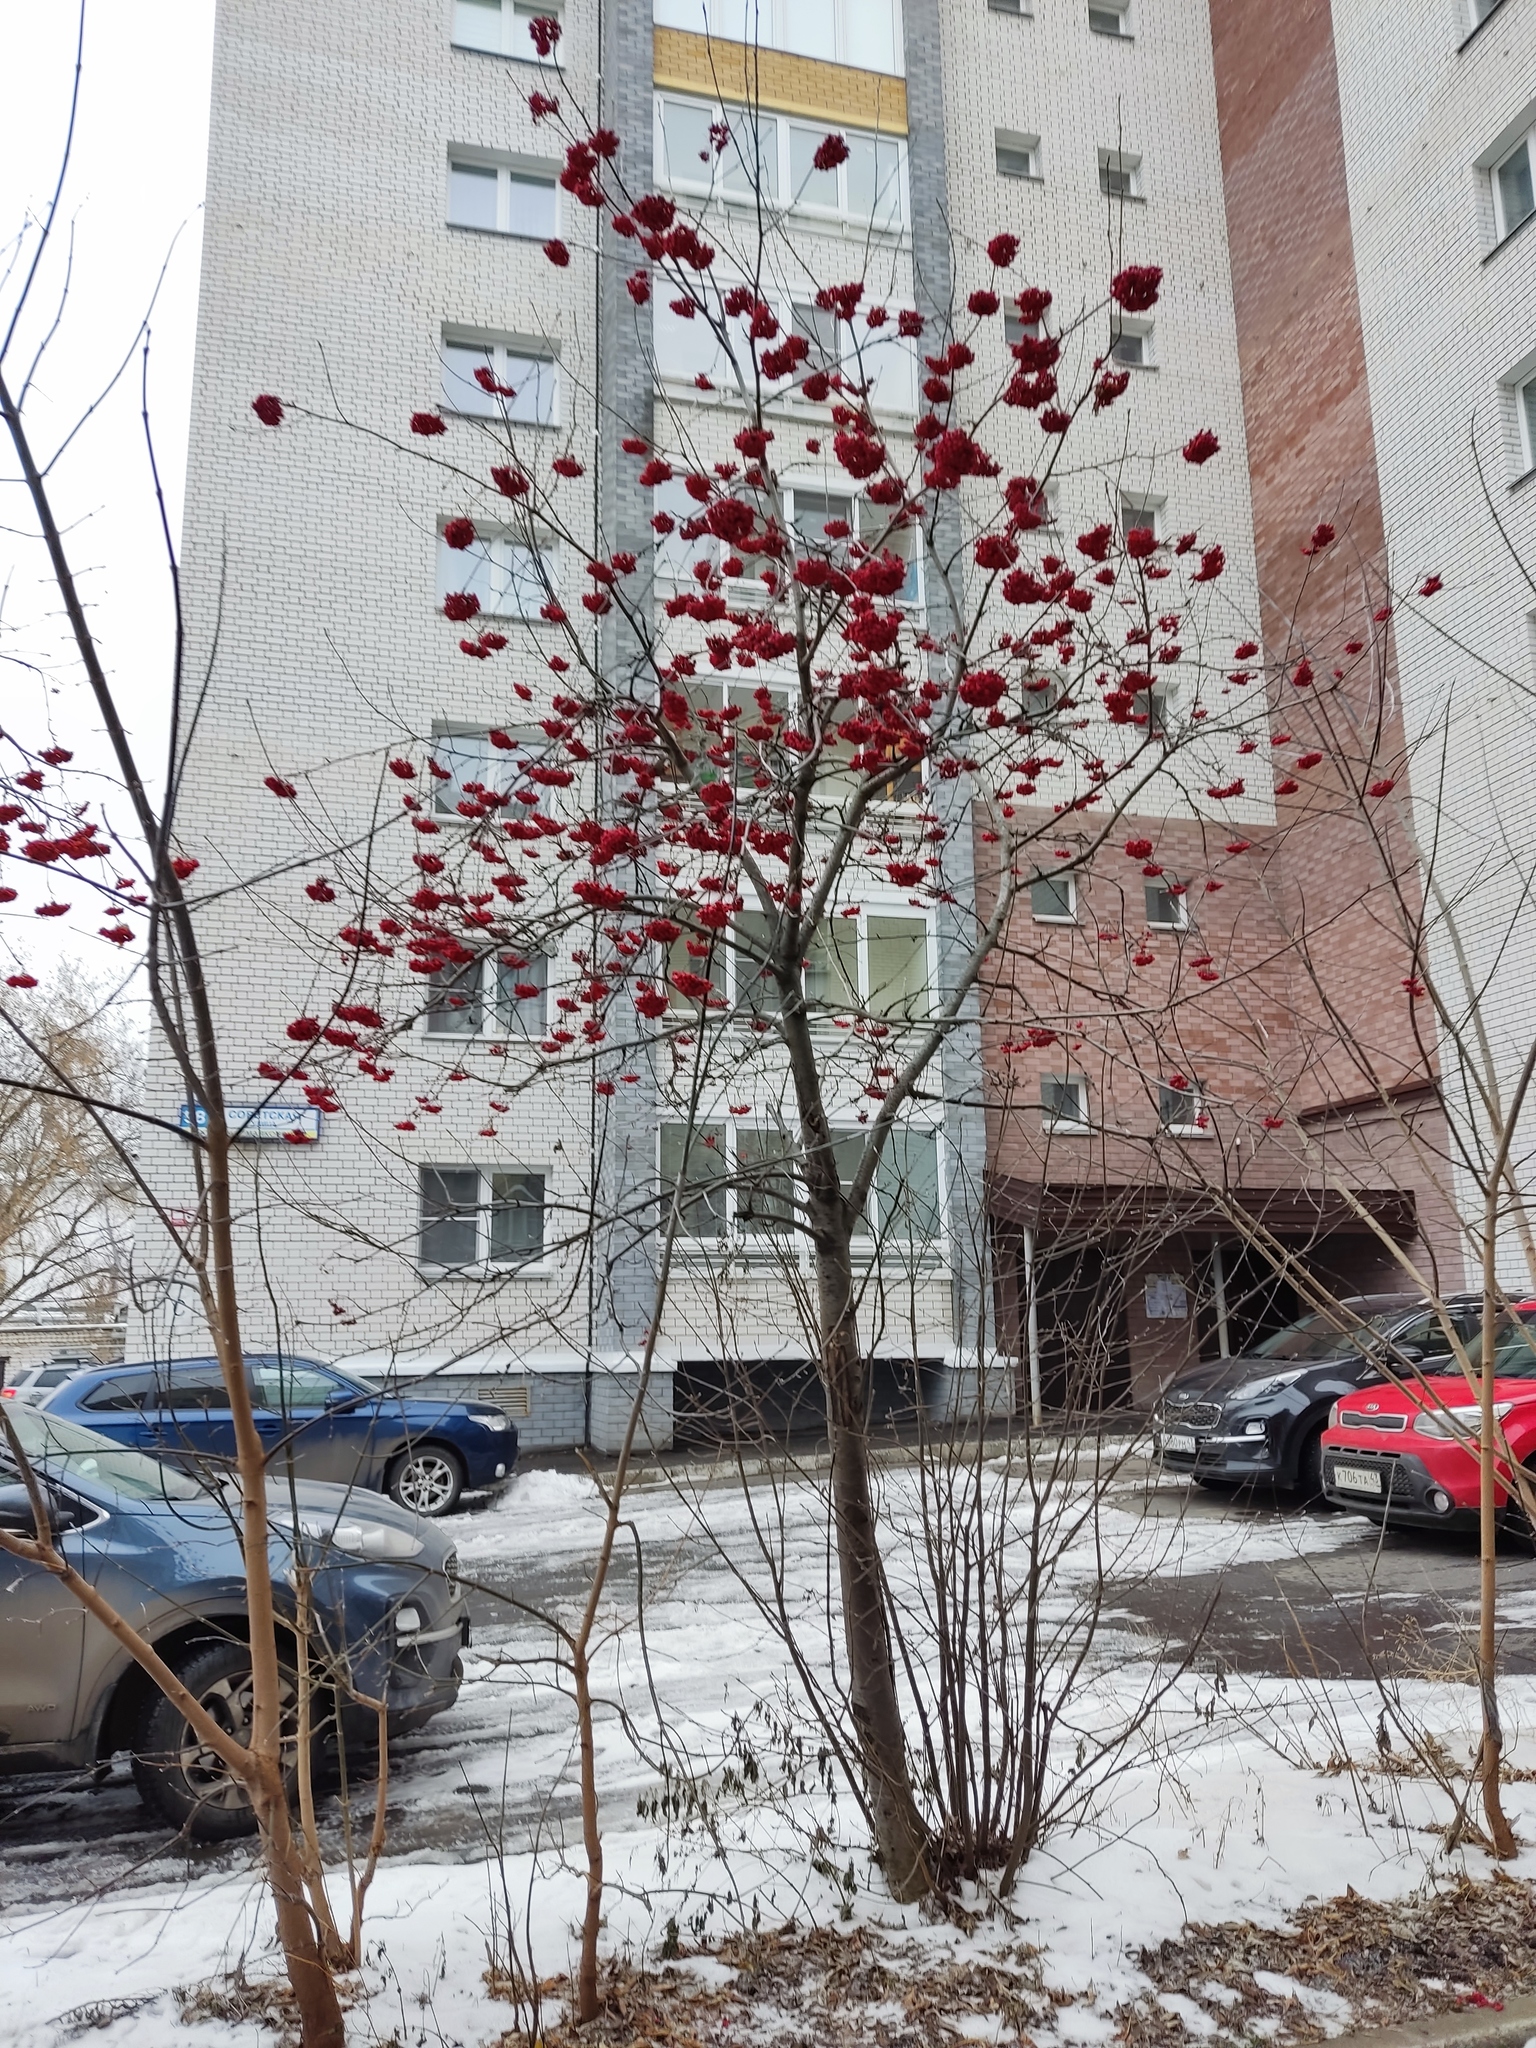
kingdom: Plantae
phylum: Tracheophyta
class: Magnoliopsida
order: Rosales
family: Rosaceae
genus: Sorbus
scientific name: Sorbus aucuparia
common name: Rowan
